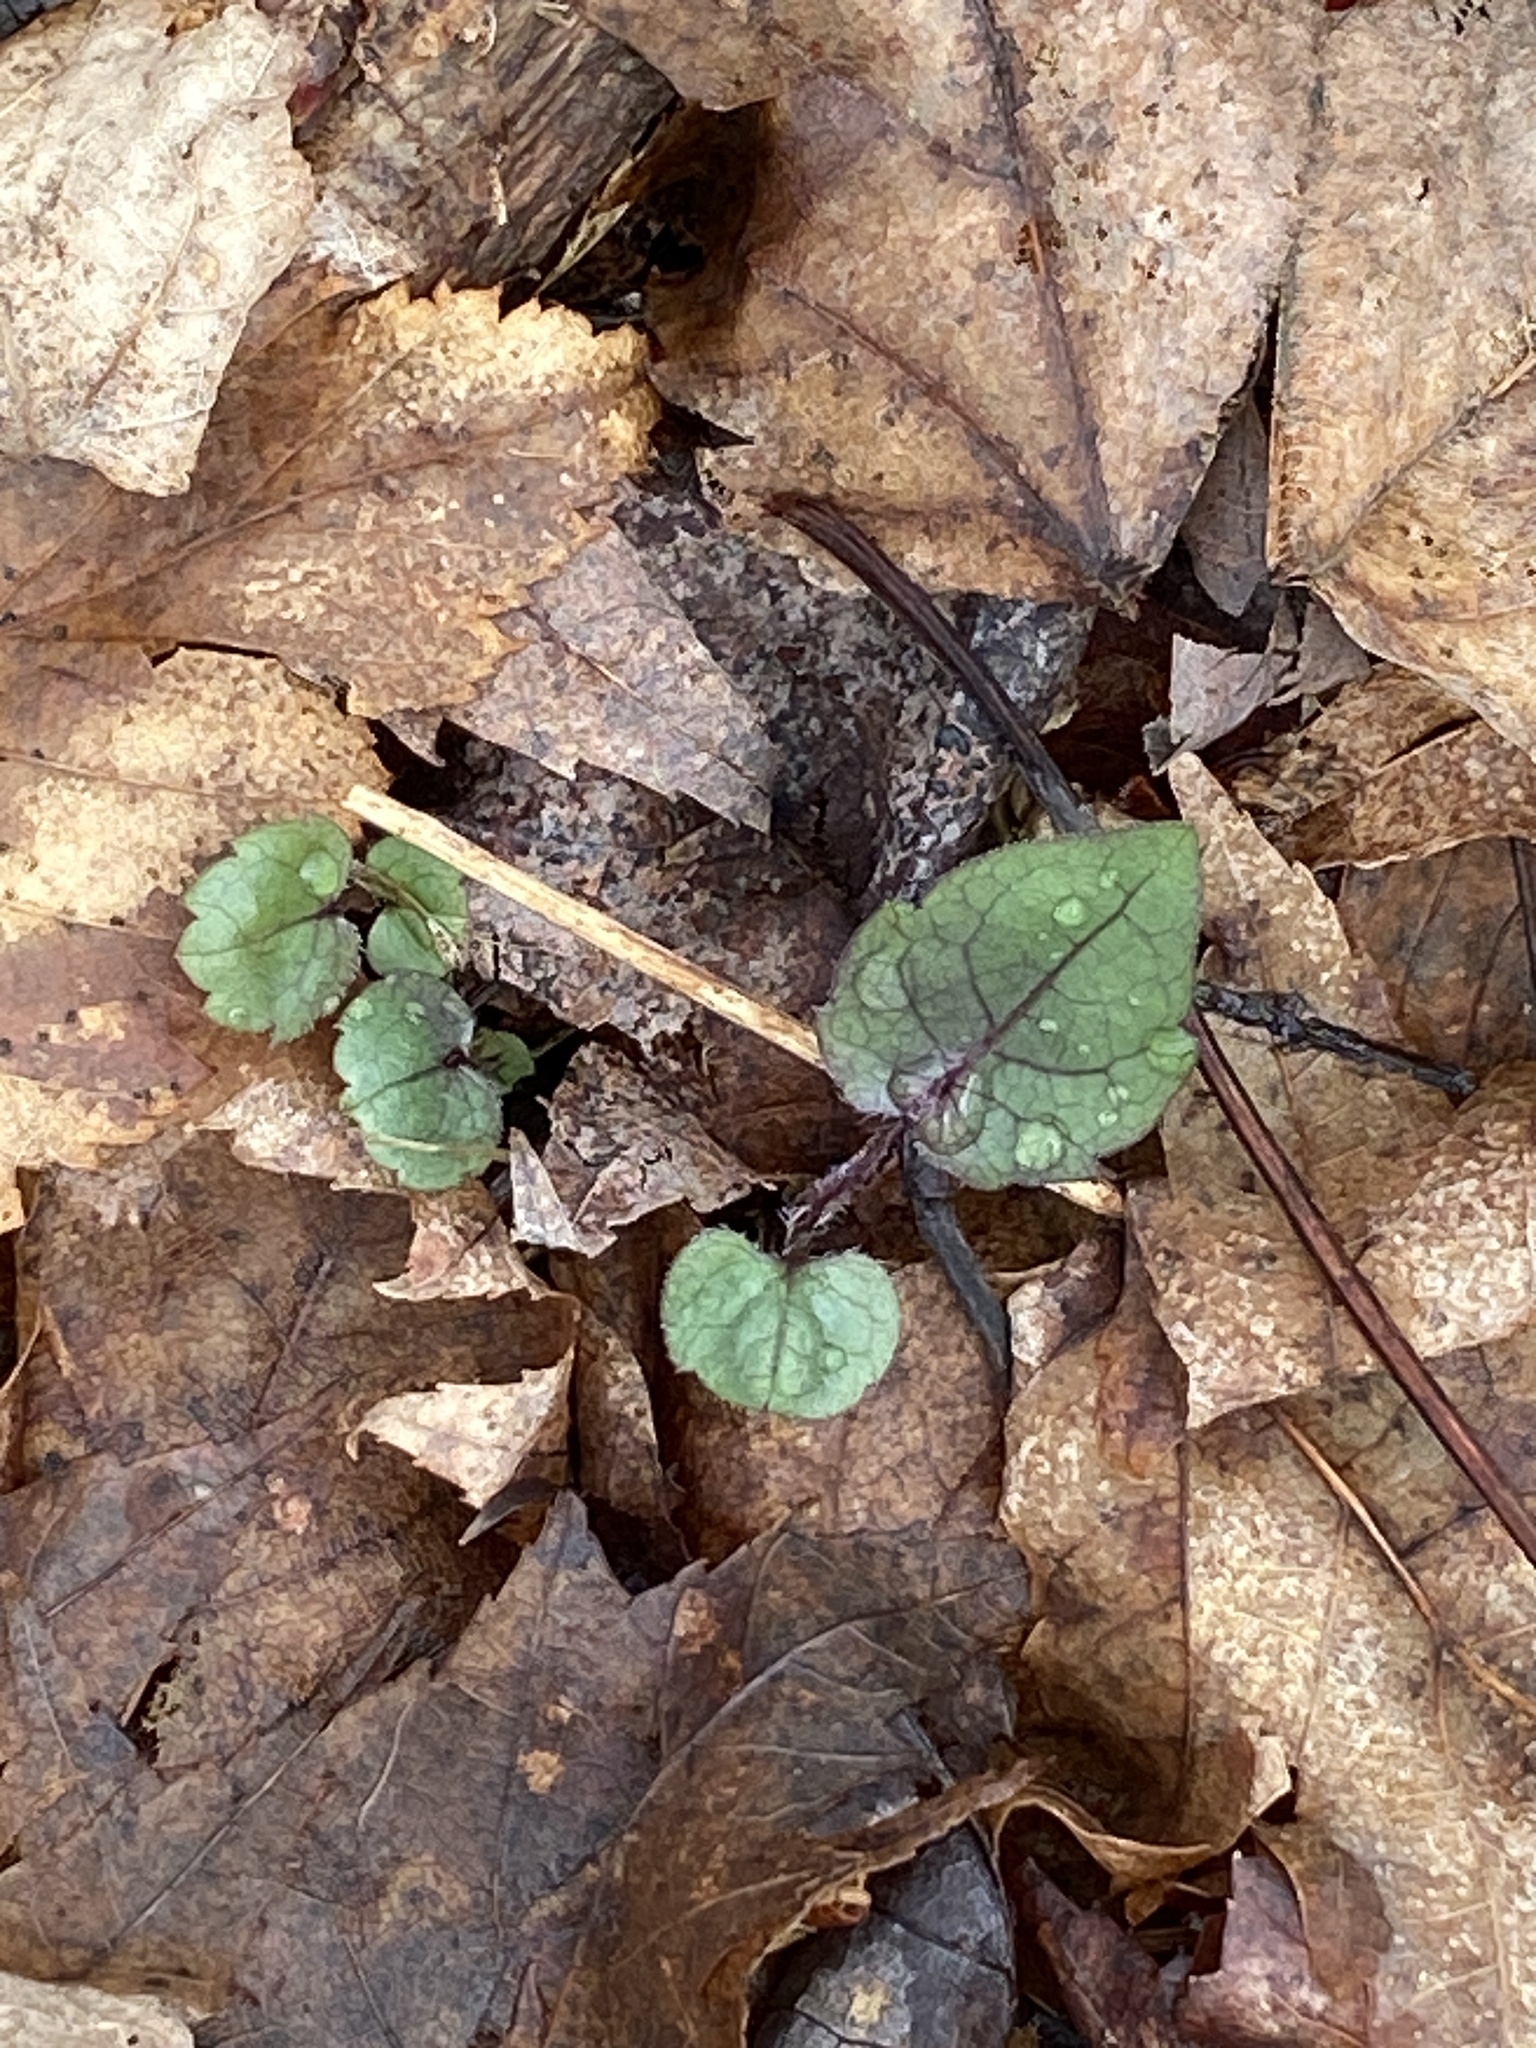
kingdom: Plantae
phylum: Tracheophyta
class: Magnoliopsida
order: Asterales
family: Asteraceae
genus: Eurybia
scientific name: Eurybia divaricata
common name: White wood aster
